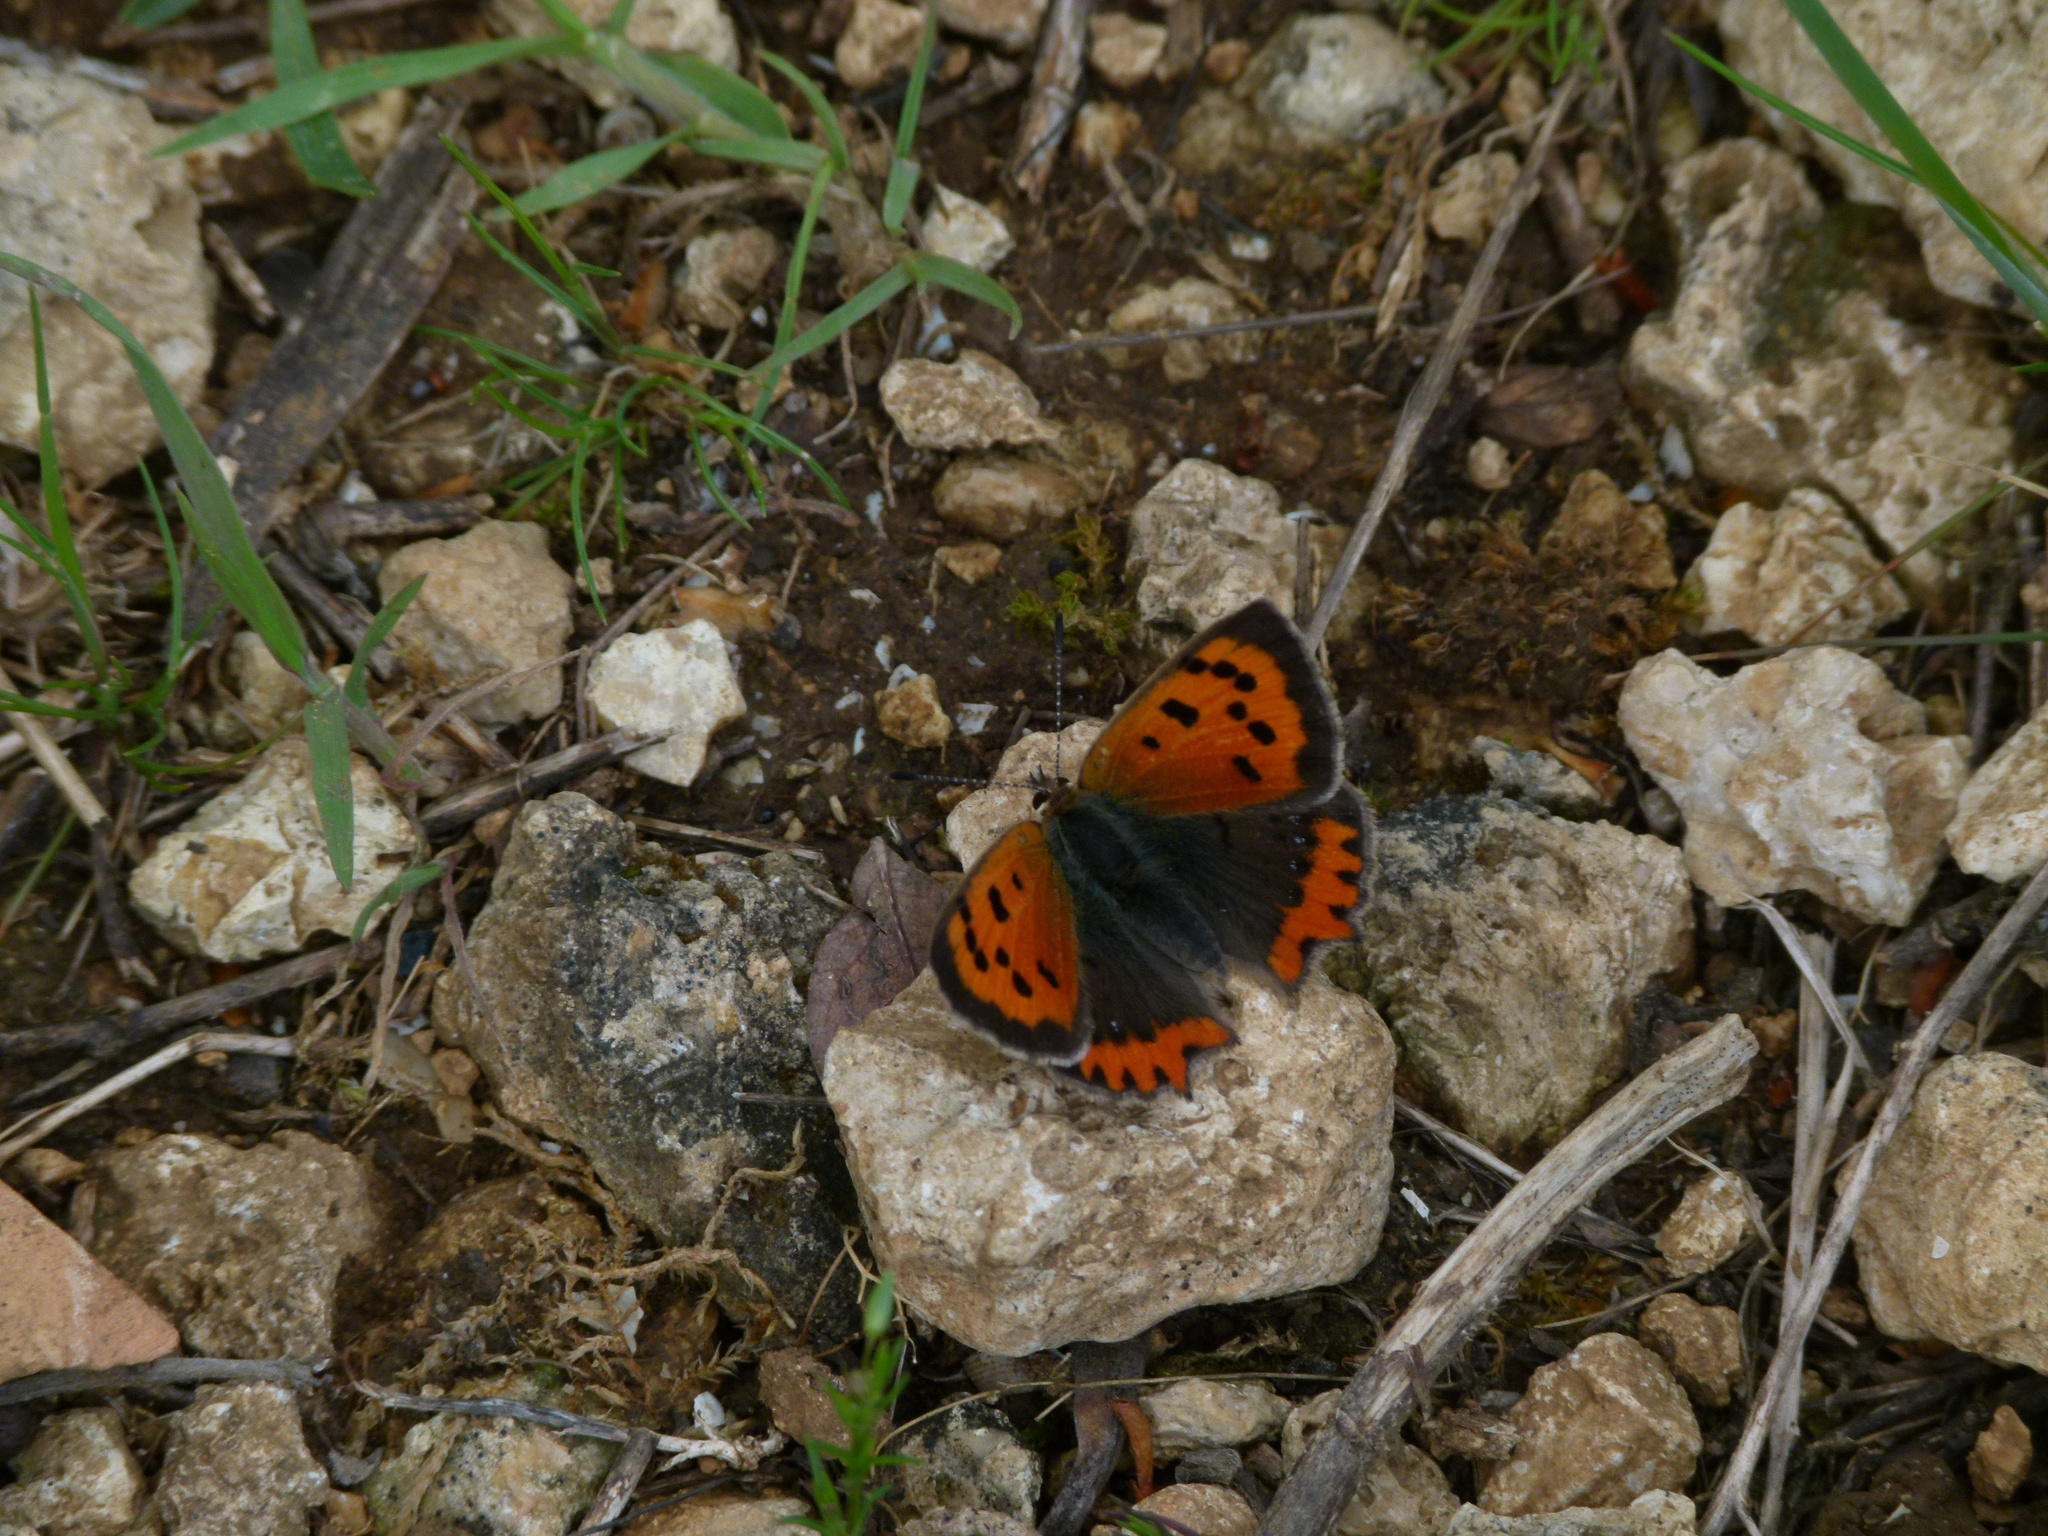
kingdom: Animalia
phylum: Arthropoda
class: Insecta
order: Lepidoptera
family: Lycaenidae
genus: Lycaena
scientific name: Lycaena phlaeas
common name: Small copper
